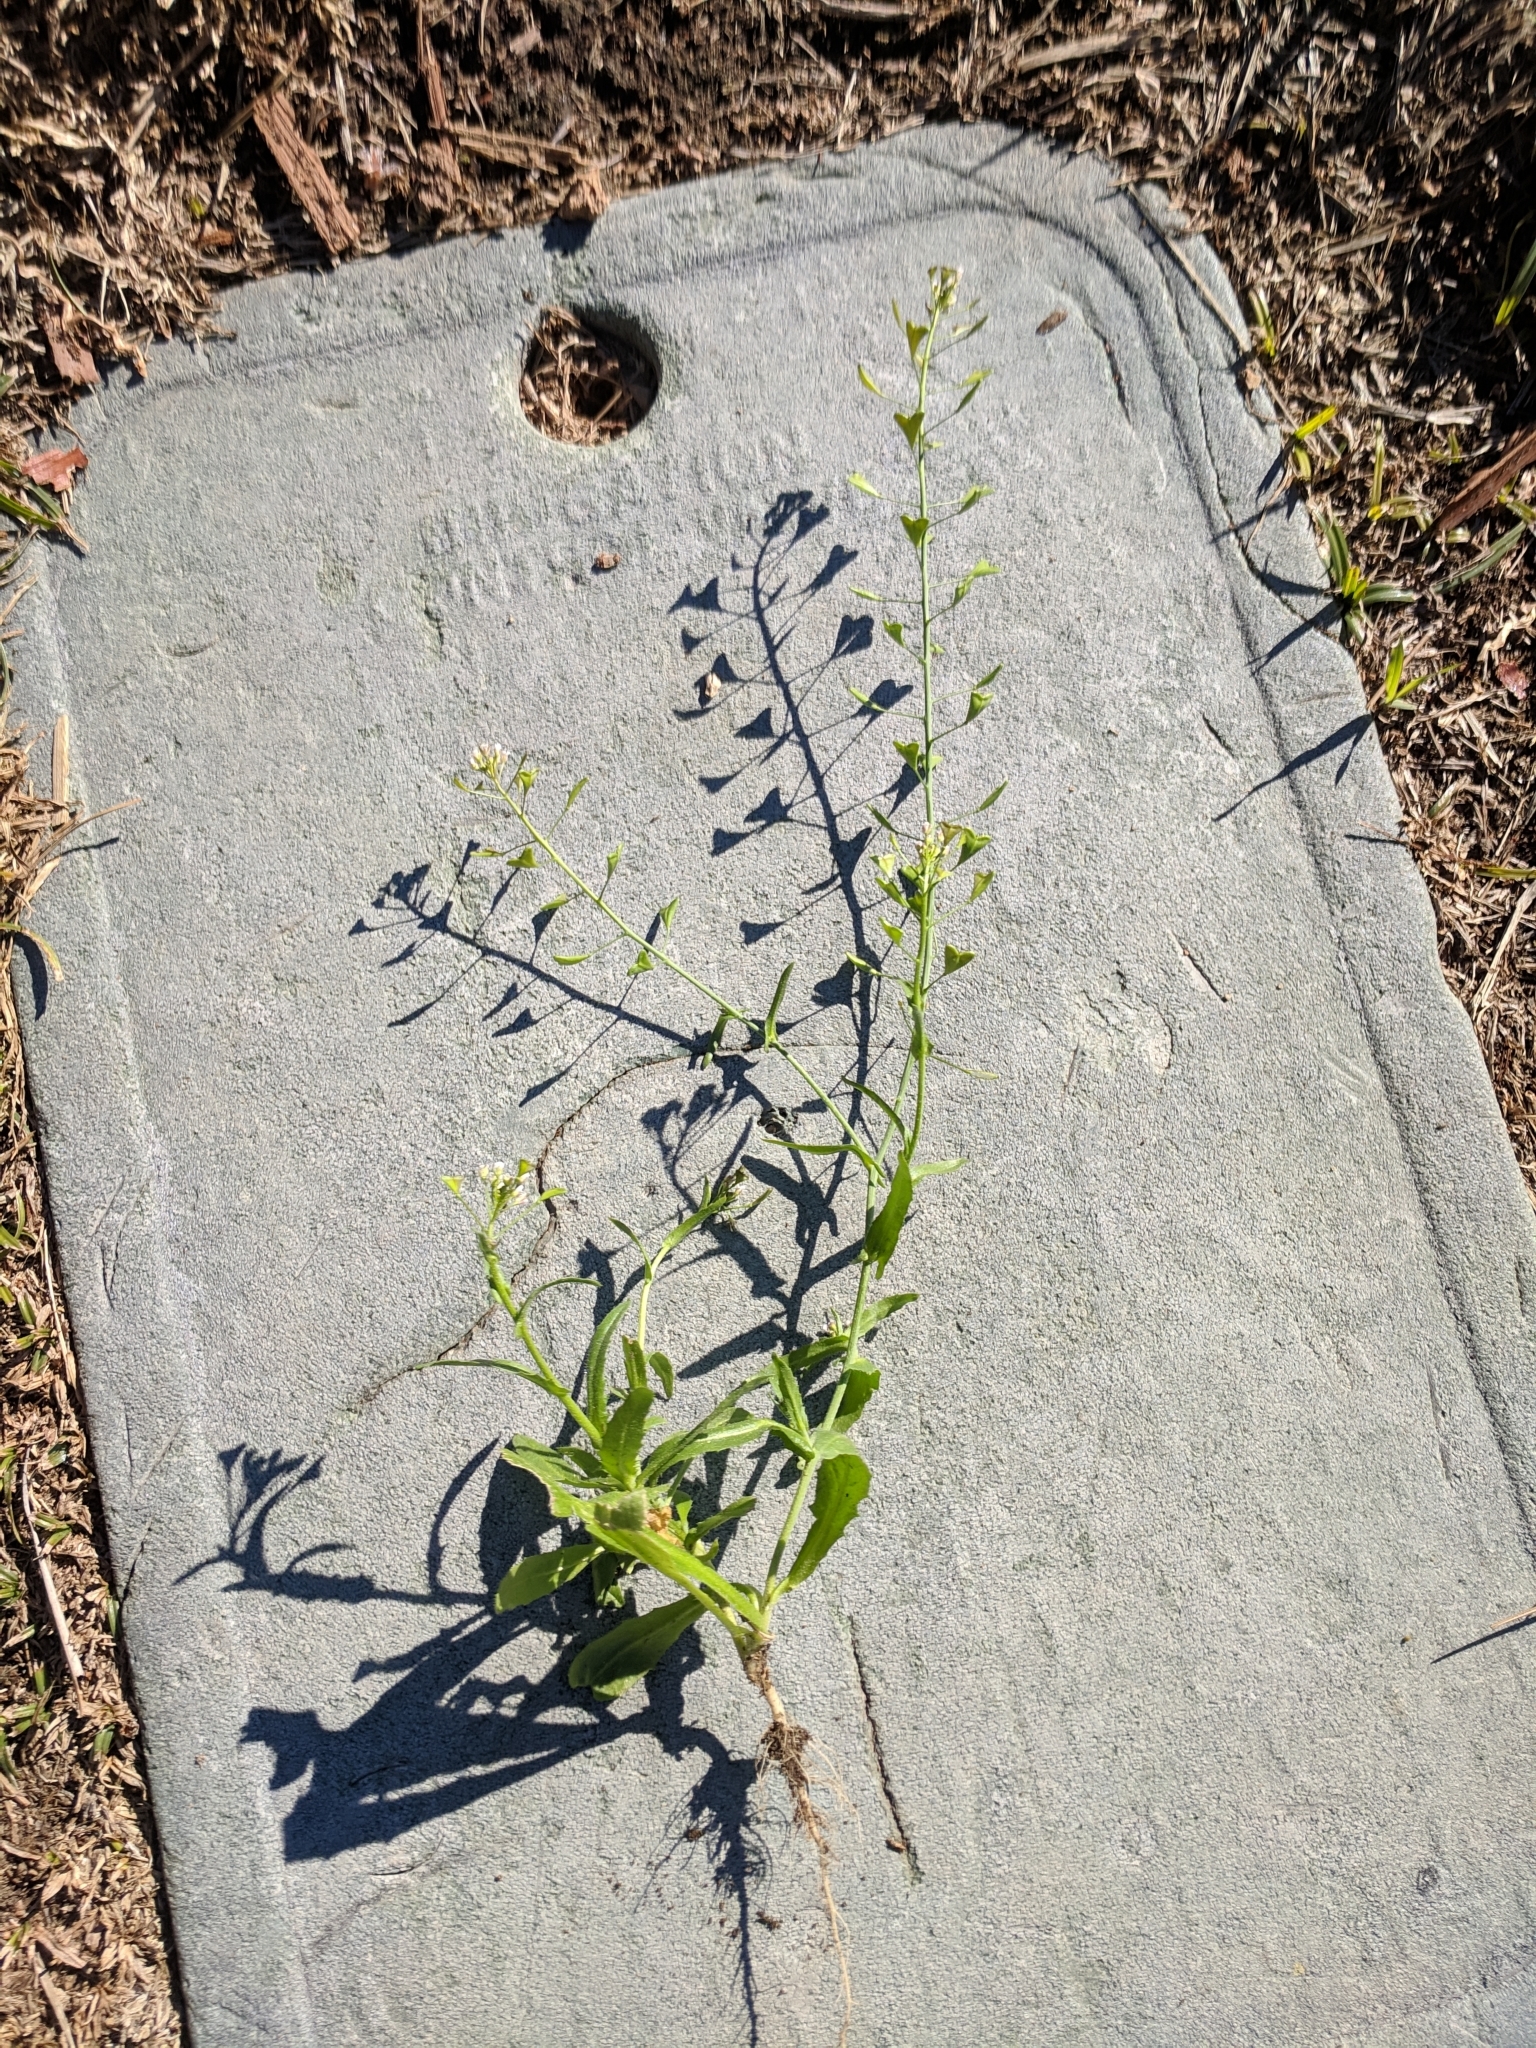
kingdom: Plantae
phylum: Tracheophyta
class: Magnoliopsida
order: Brassicales
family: Brassicaceae
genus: Capsella
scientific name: Capsella bursa-pastoris
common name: Shepherd's purse
